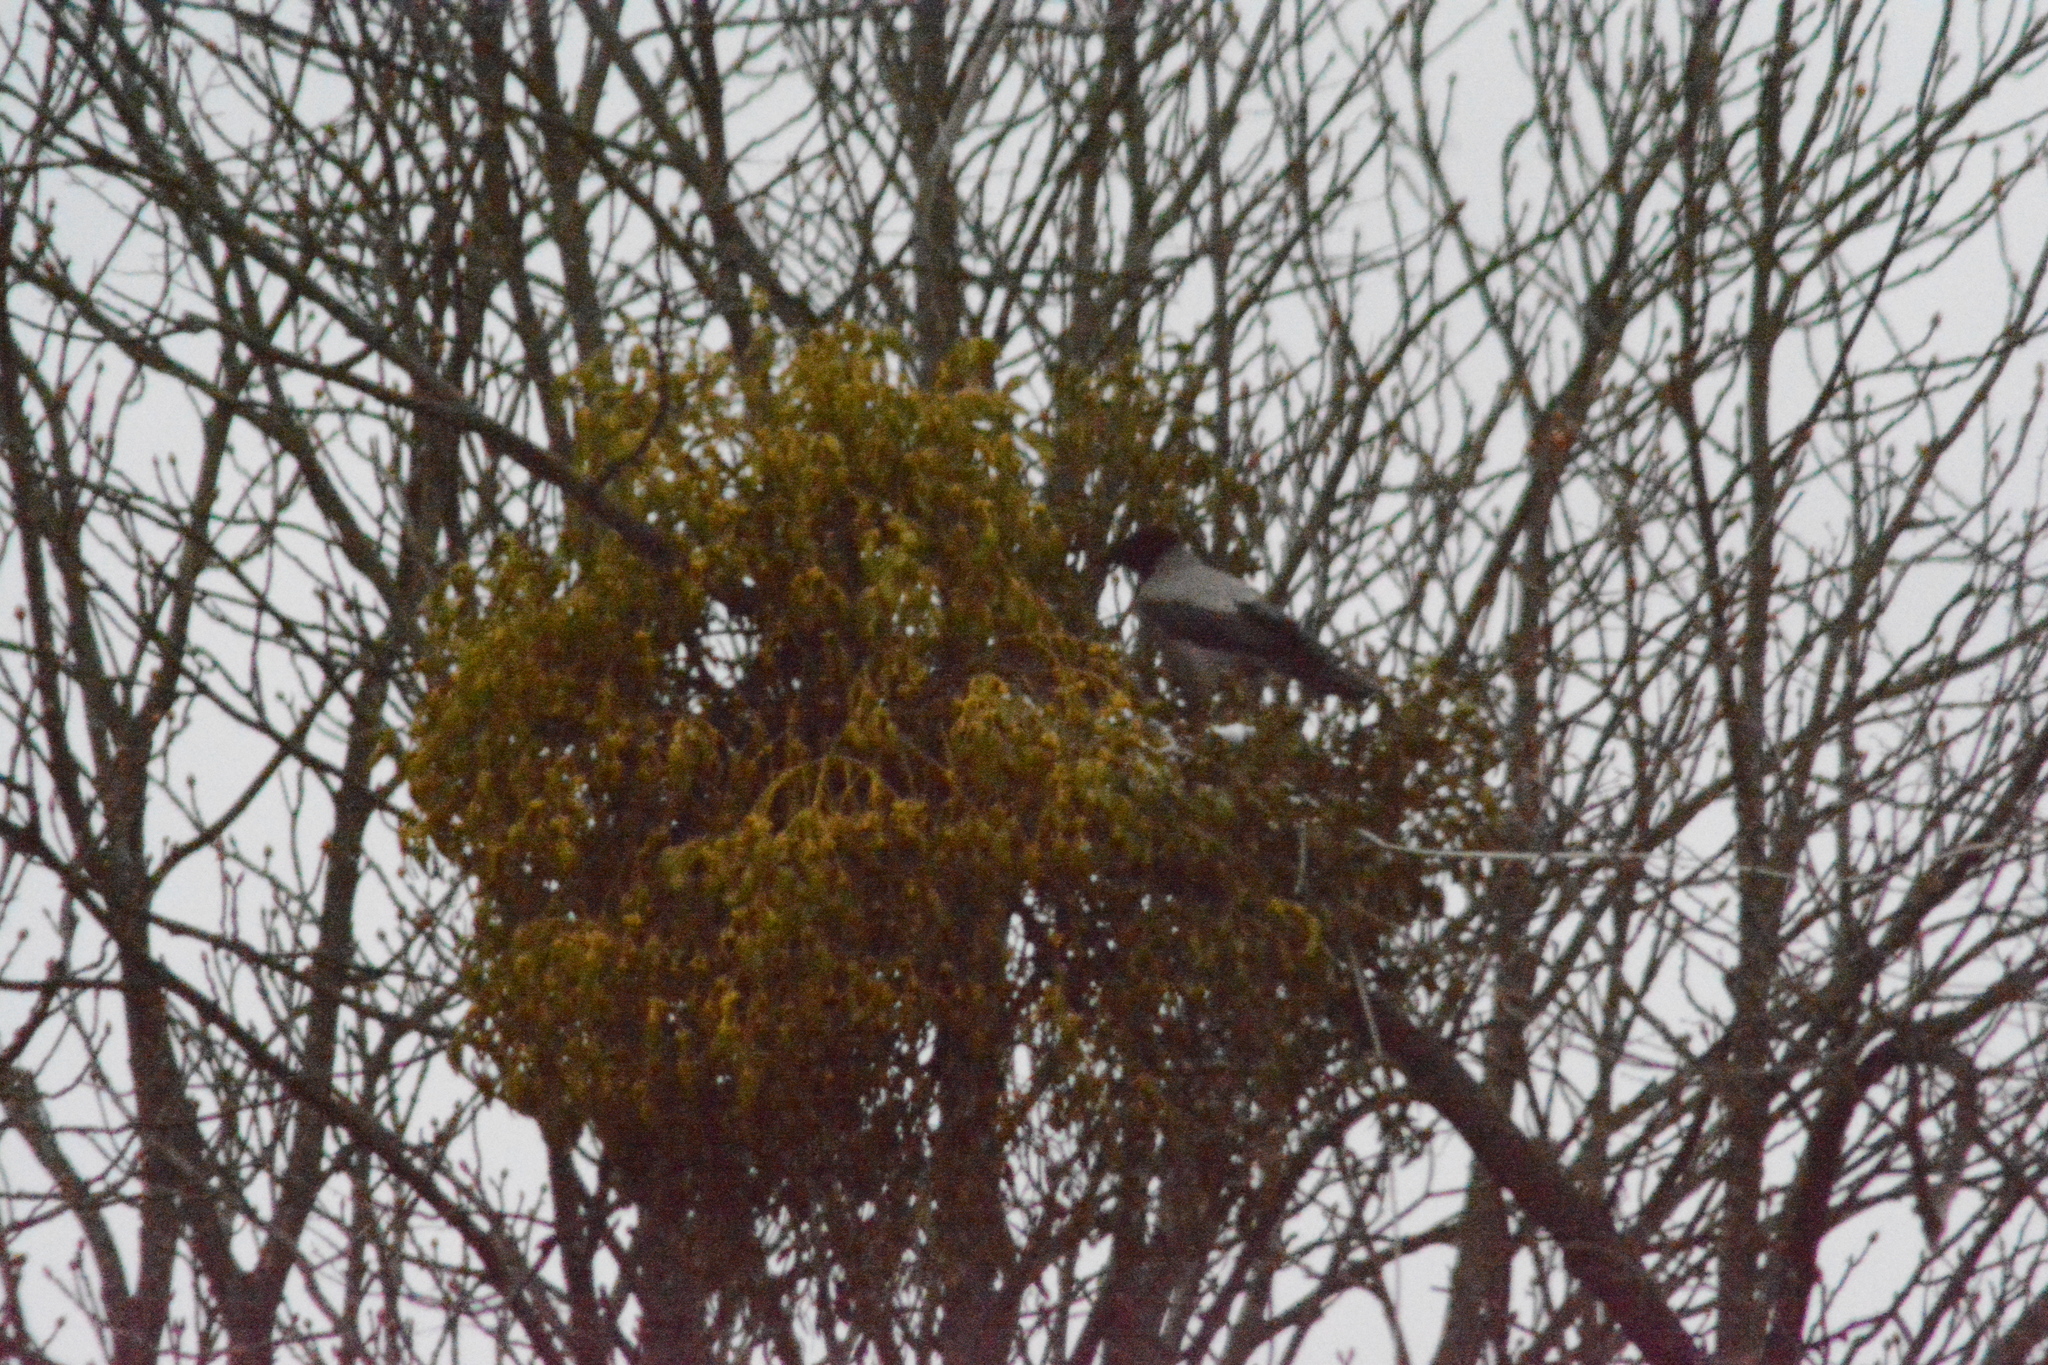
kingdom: Animalia
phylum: Chordata
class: Aves
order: Passeriformes
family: Corvidae
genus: Corvus
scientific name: Corvus cornix
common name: Hooded crow
